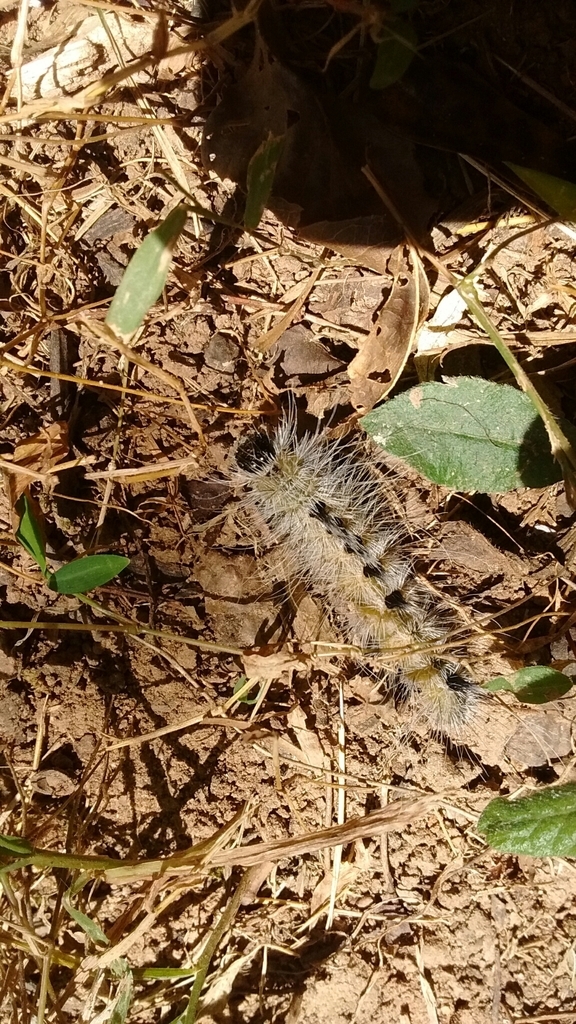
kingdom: Animalia
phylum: Arthropoda
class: Insecta
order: Lepidoptera
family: Noctuidae
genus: Acronicta
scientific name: Acronicta rubricoma
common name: Hackberry dagger
